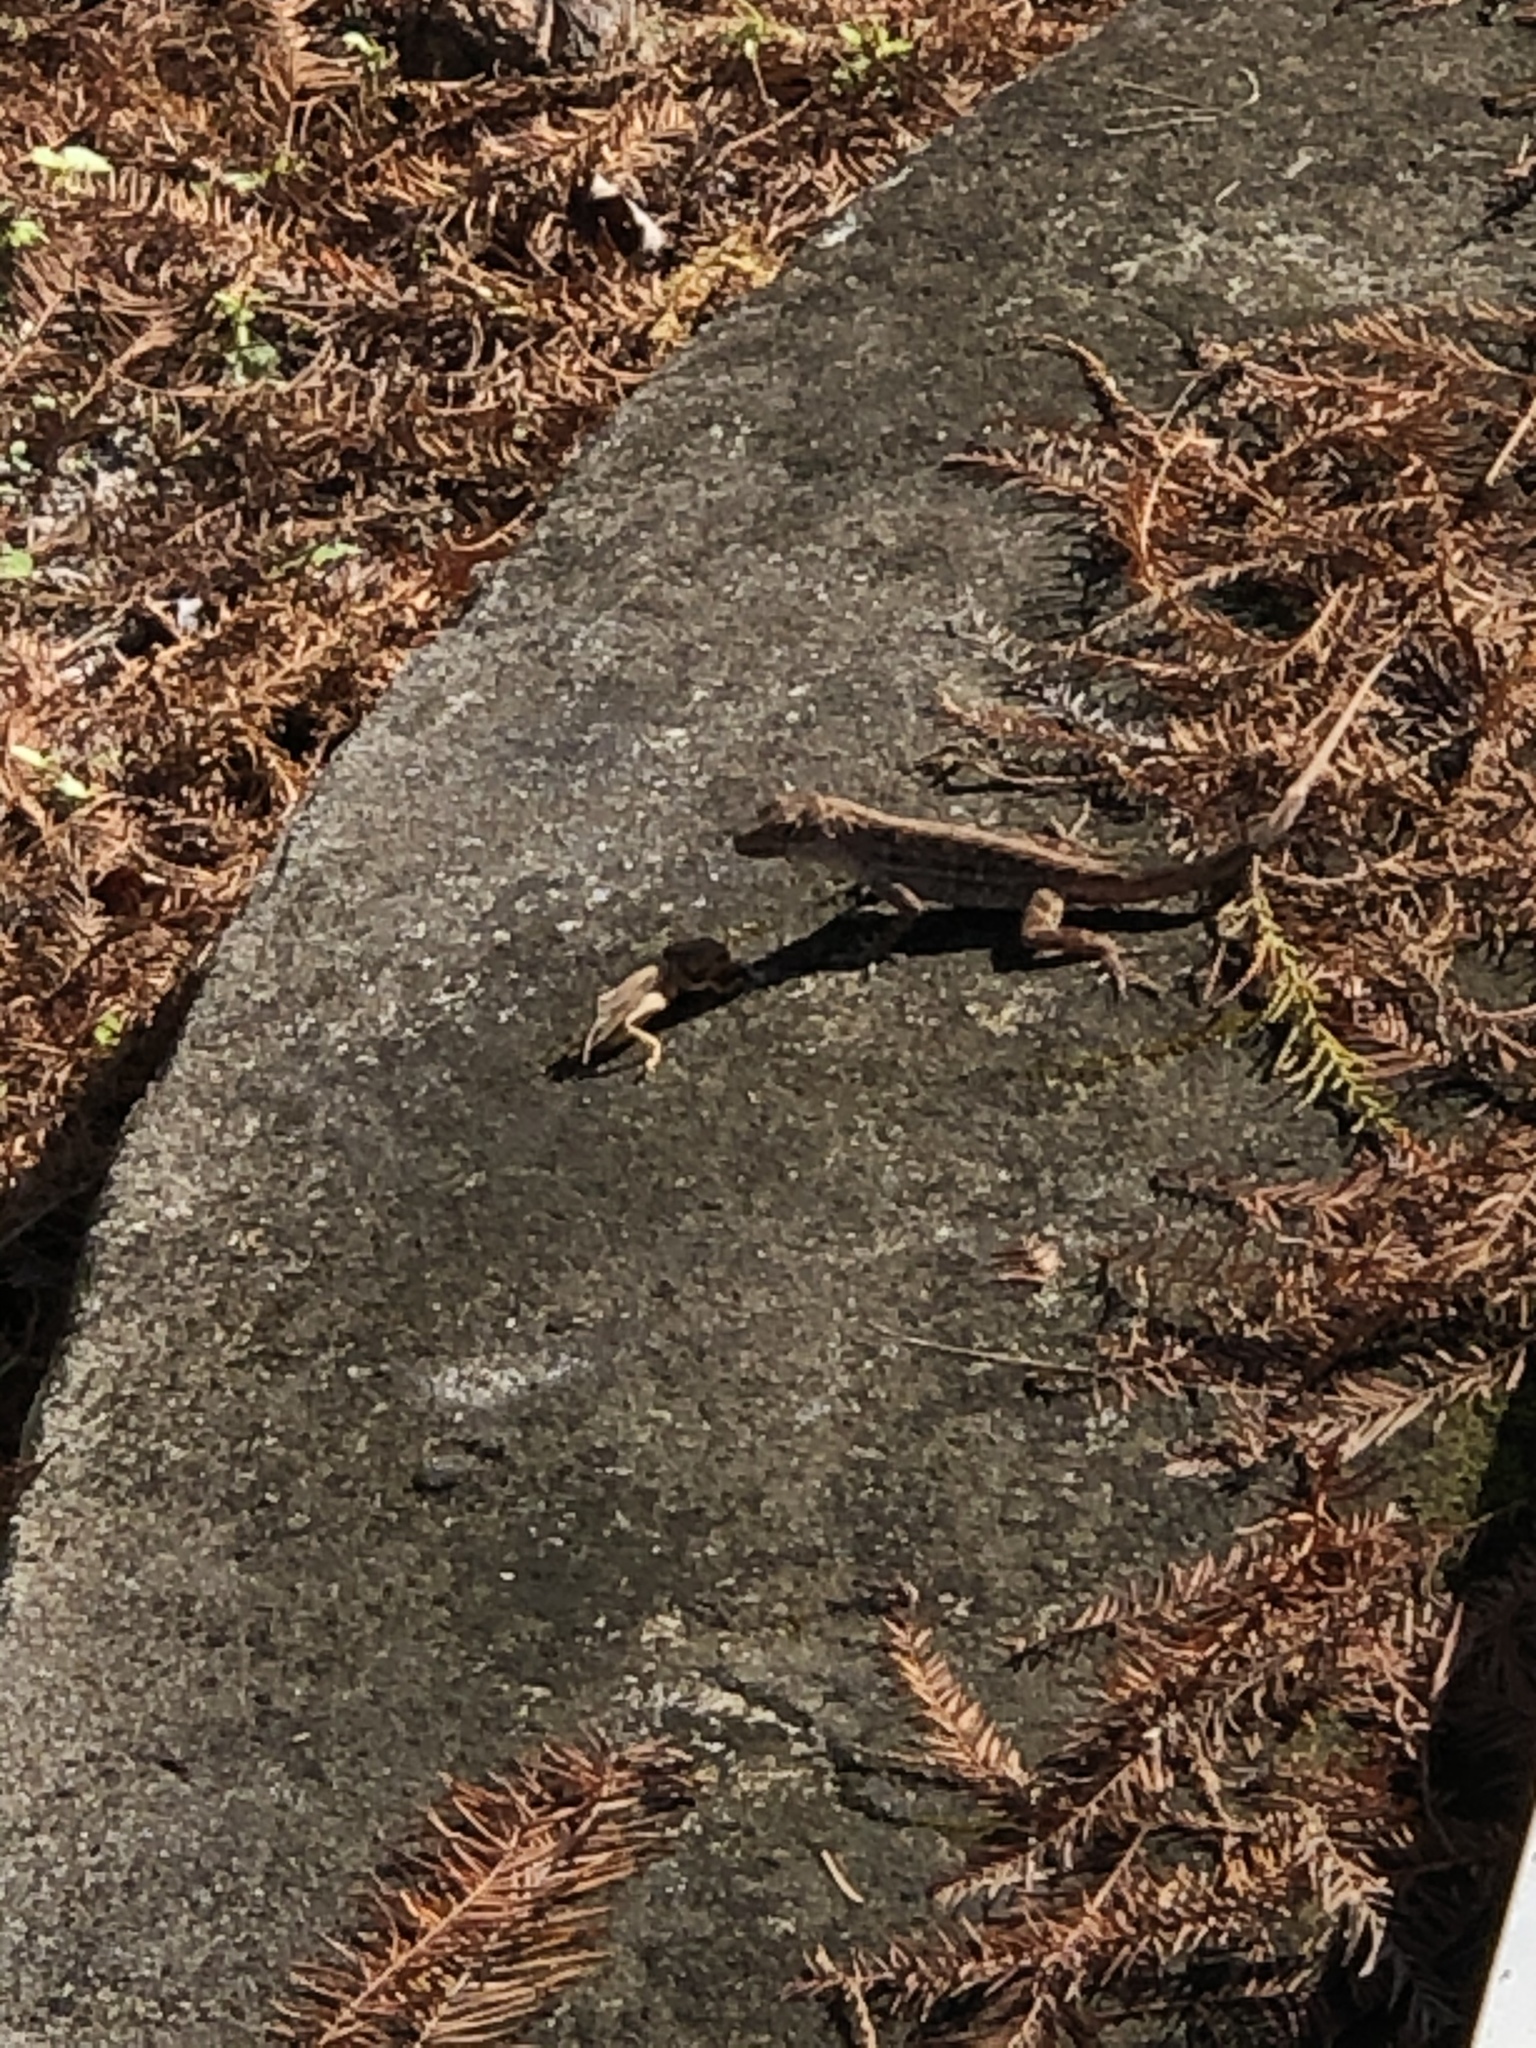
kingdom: Animalia
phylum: Chordata
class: Squamata
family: Dactyloidae
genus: Anolis
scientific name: Anolis sagrei
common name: Brown anole
